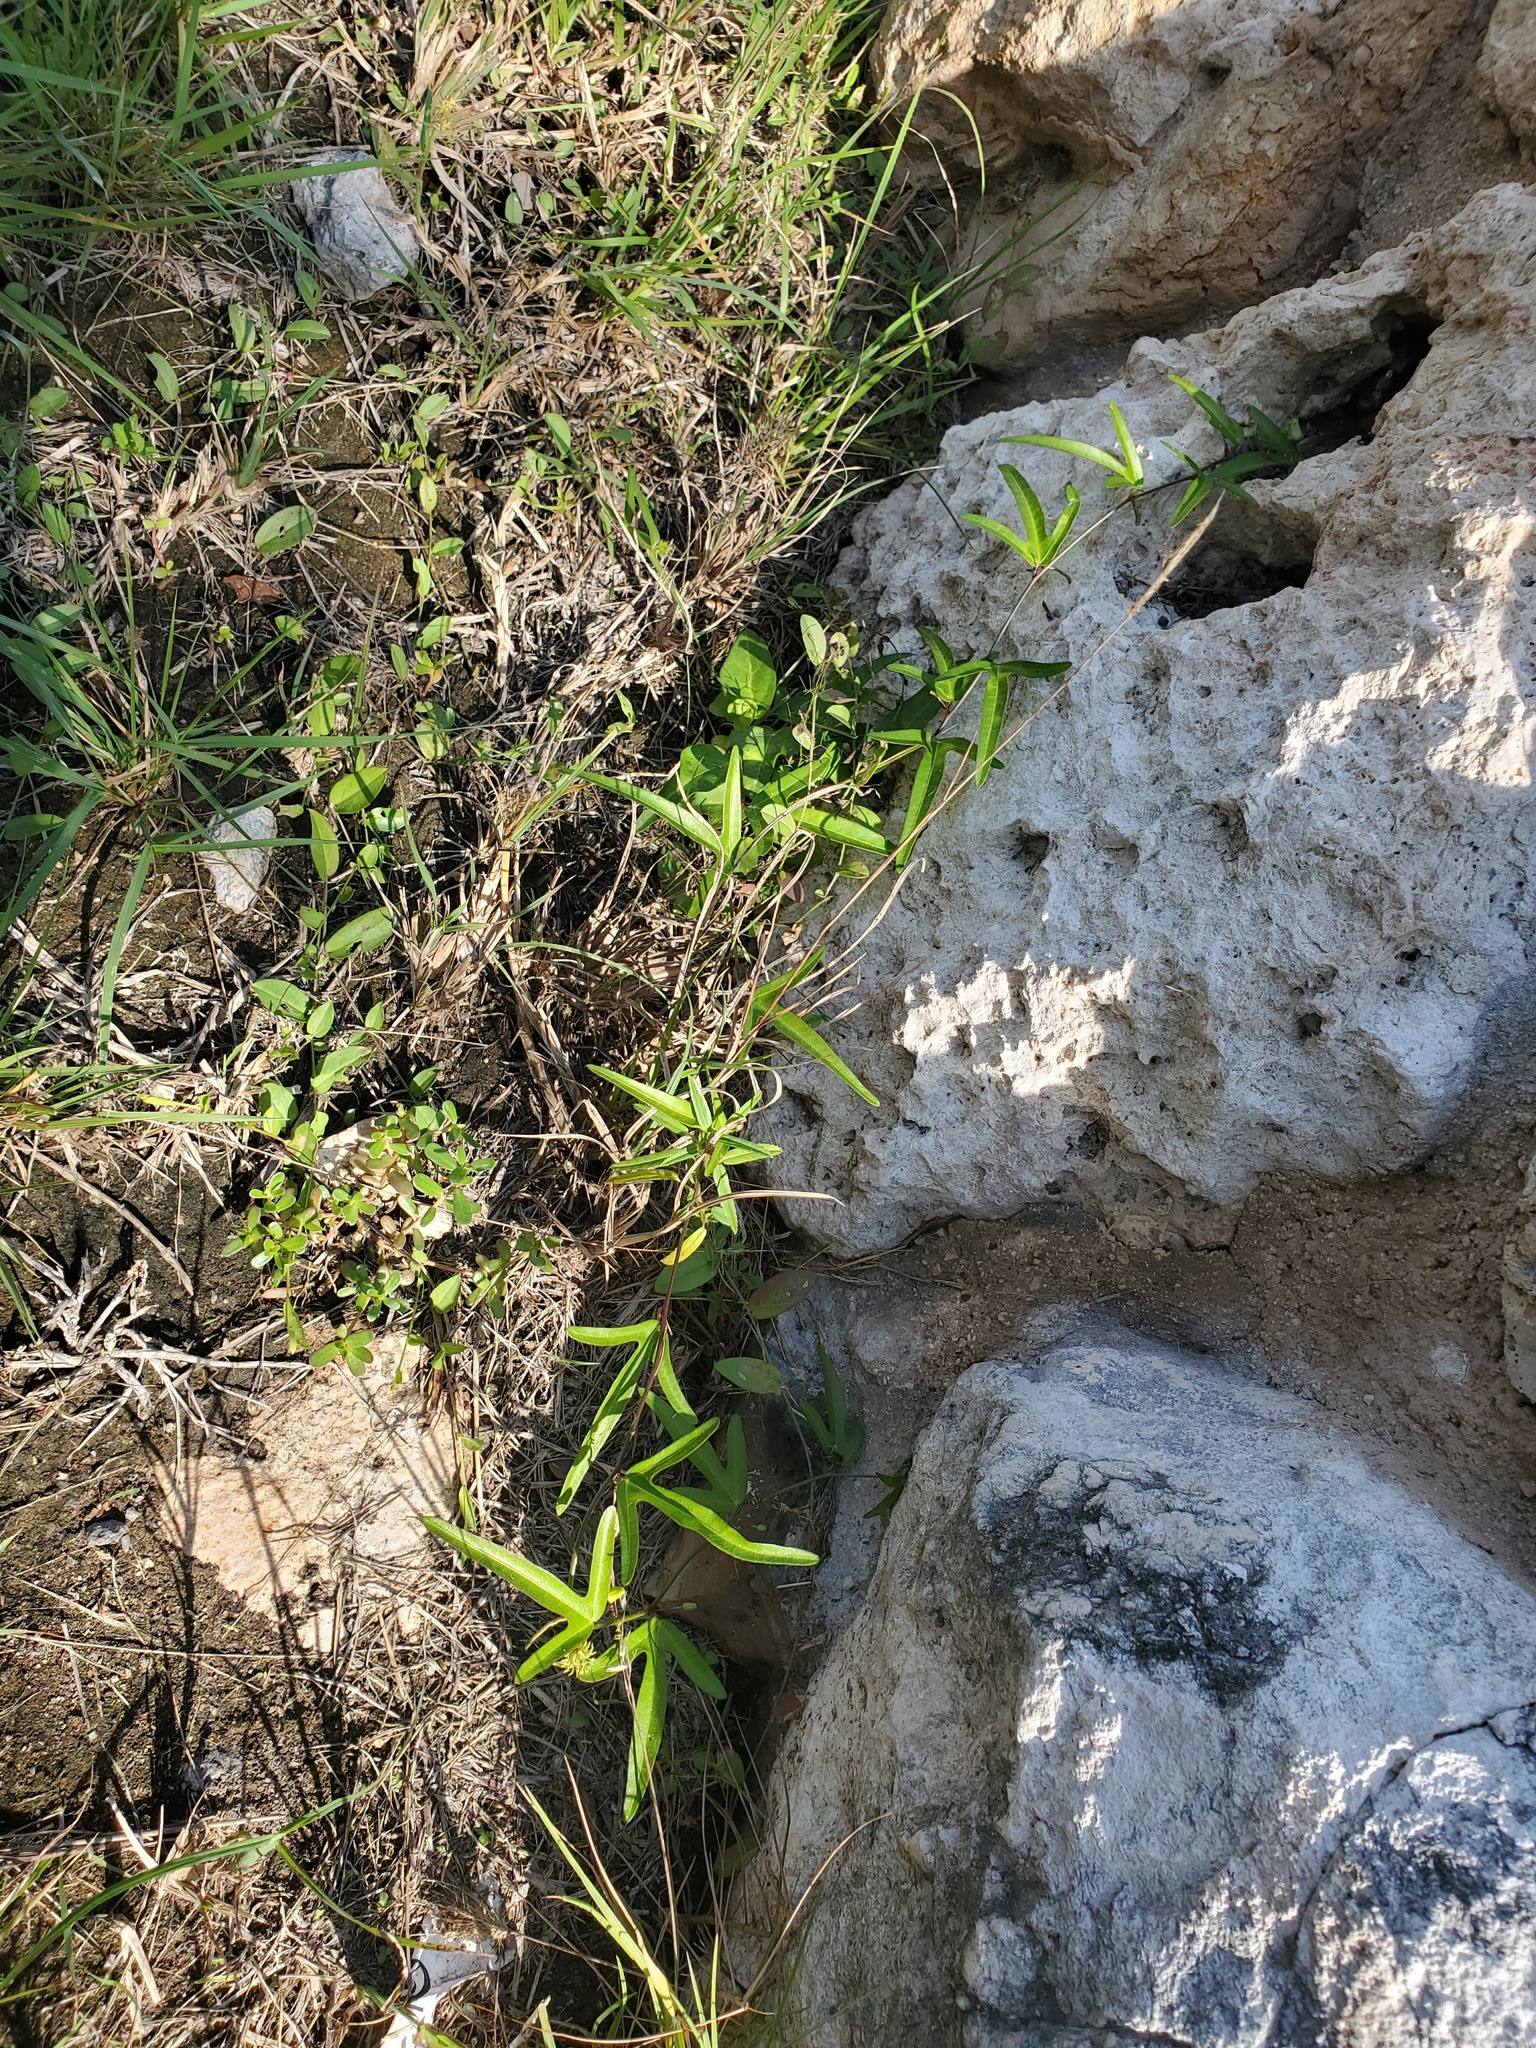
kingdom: Plantae
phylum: Tracheophyta
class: Magnoliopsida
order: Malpighiales
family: Passifloraceae
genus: Passiflora
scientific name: Passiflora pallida
